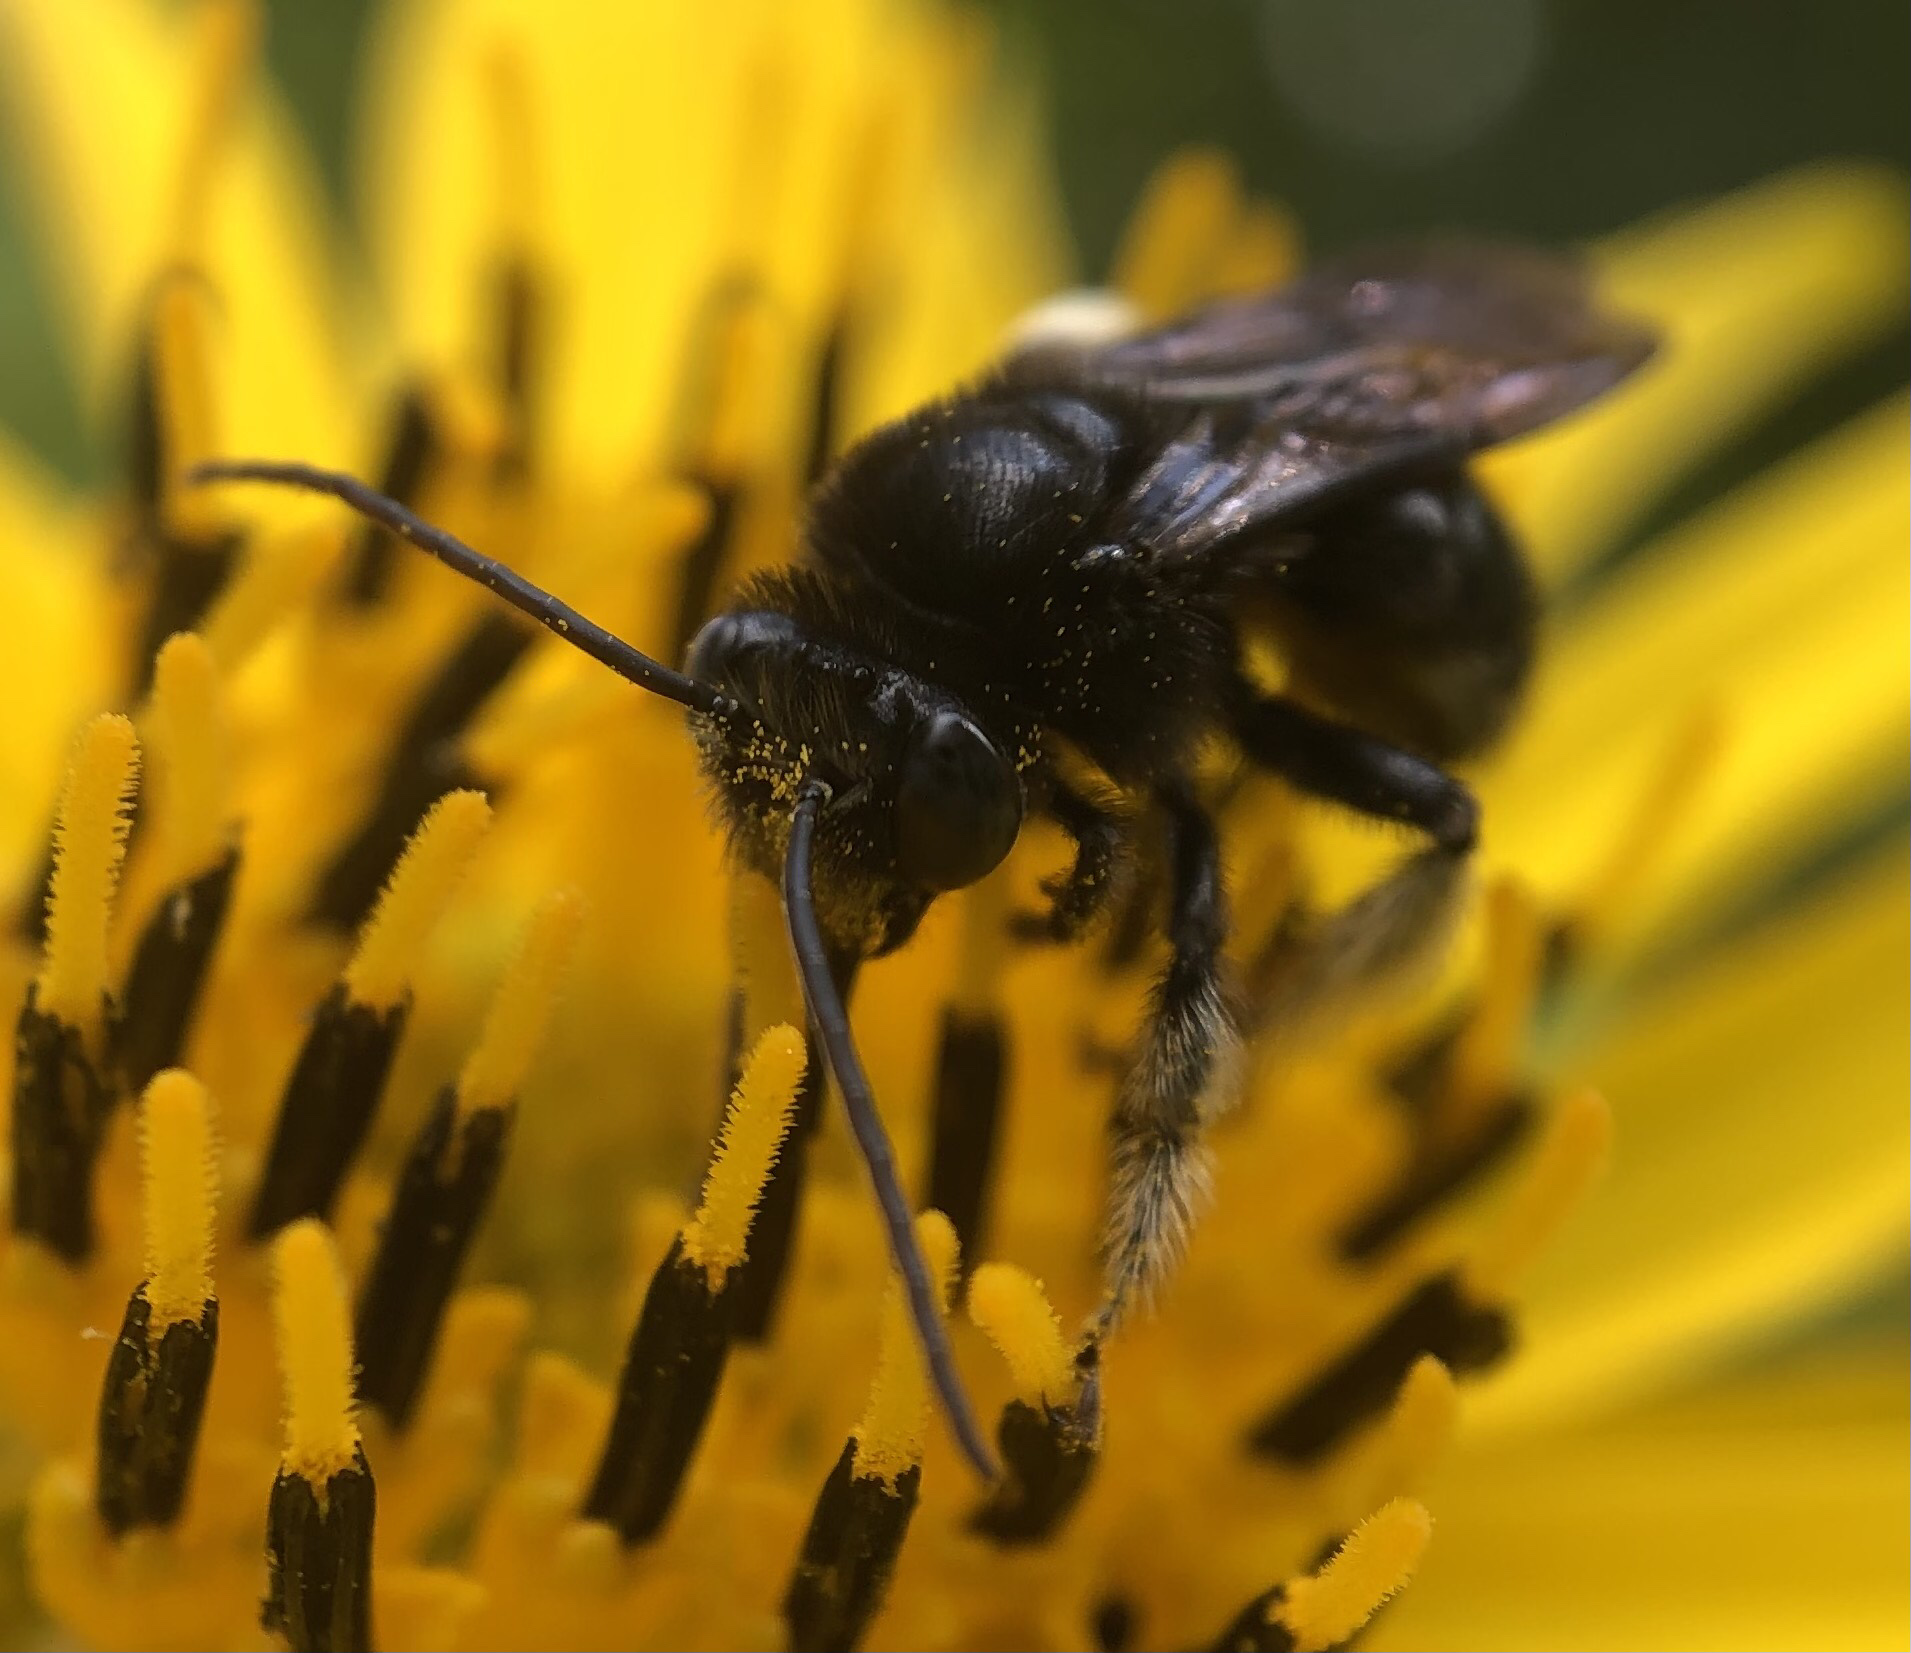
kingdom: Animalia
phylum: Arthropoda
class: Insecta
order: Hymenoptera
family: Apidae
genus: Melissodes
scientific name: Melissodes bimaculatus
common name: Two-spotted long-horned bee
